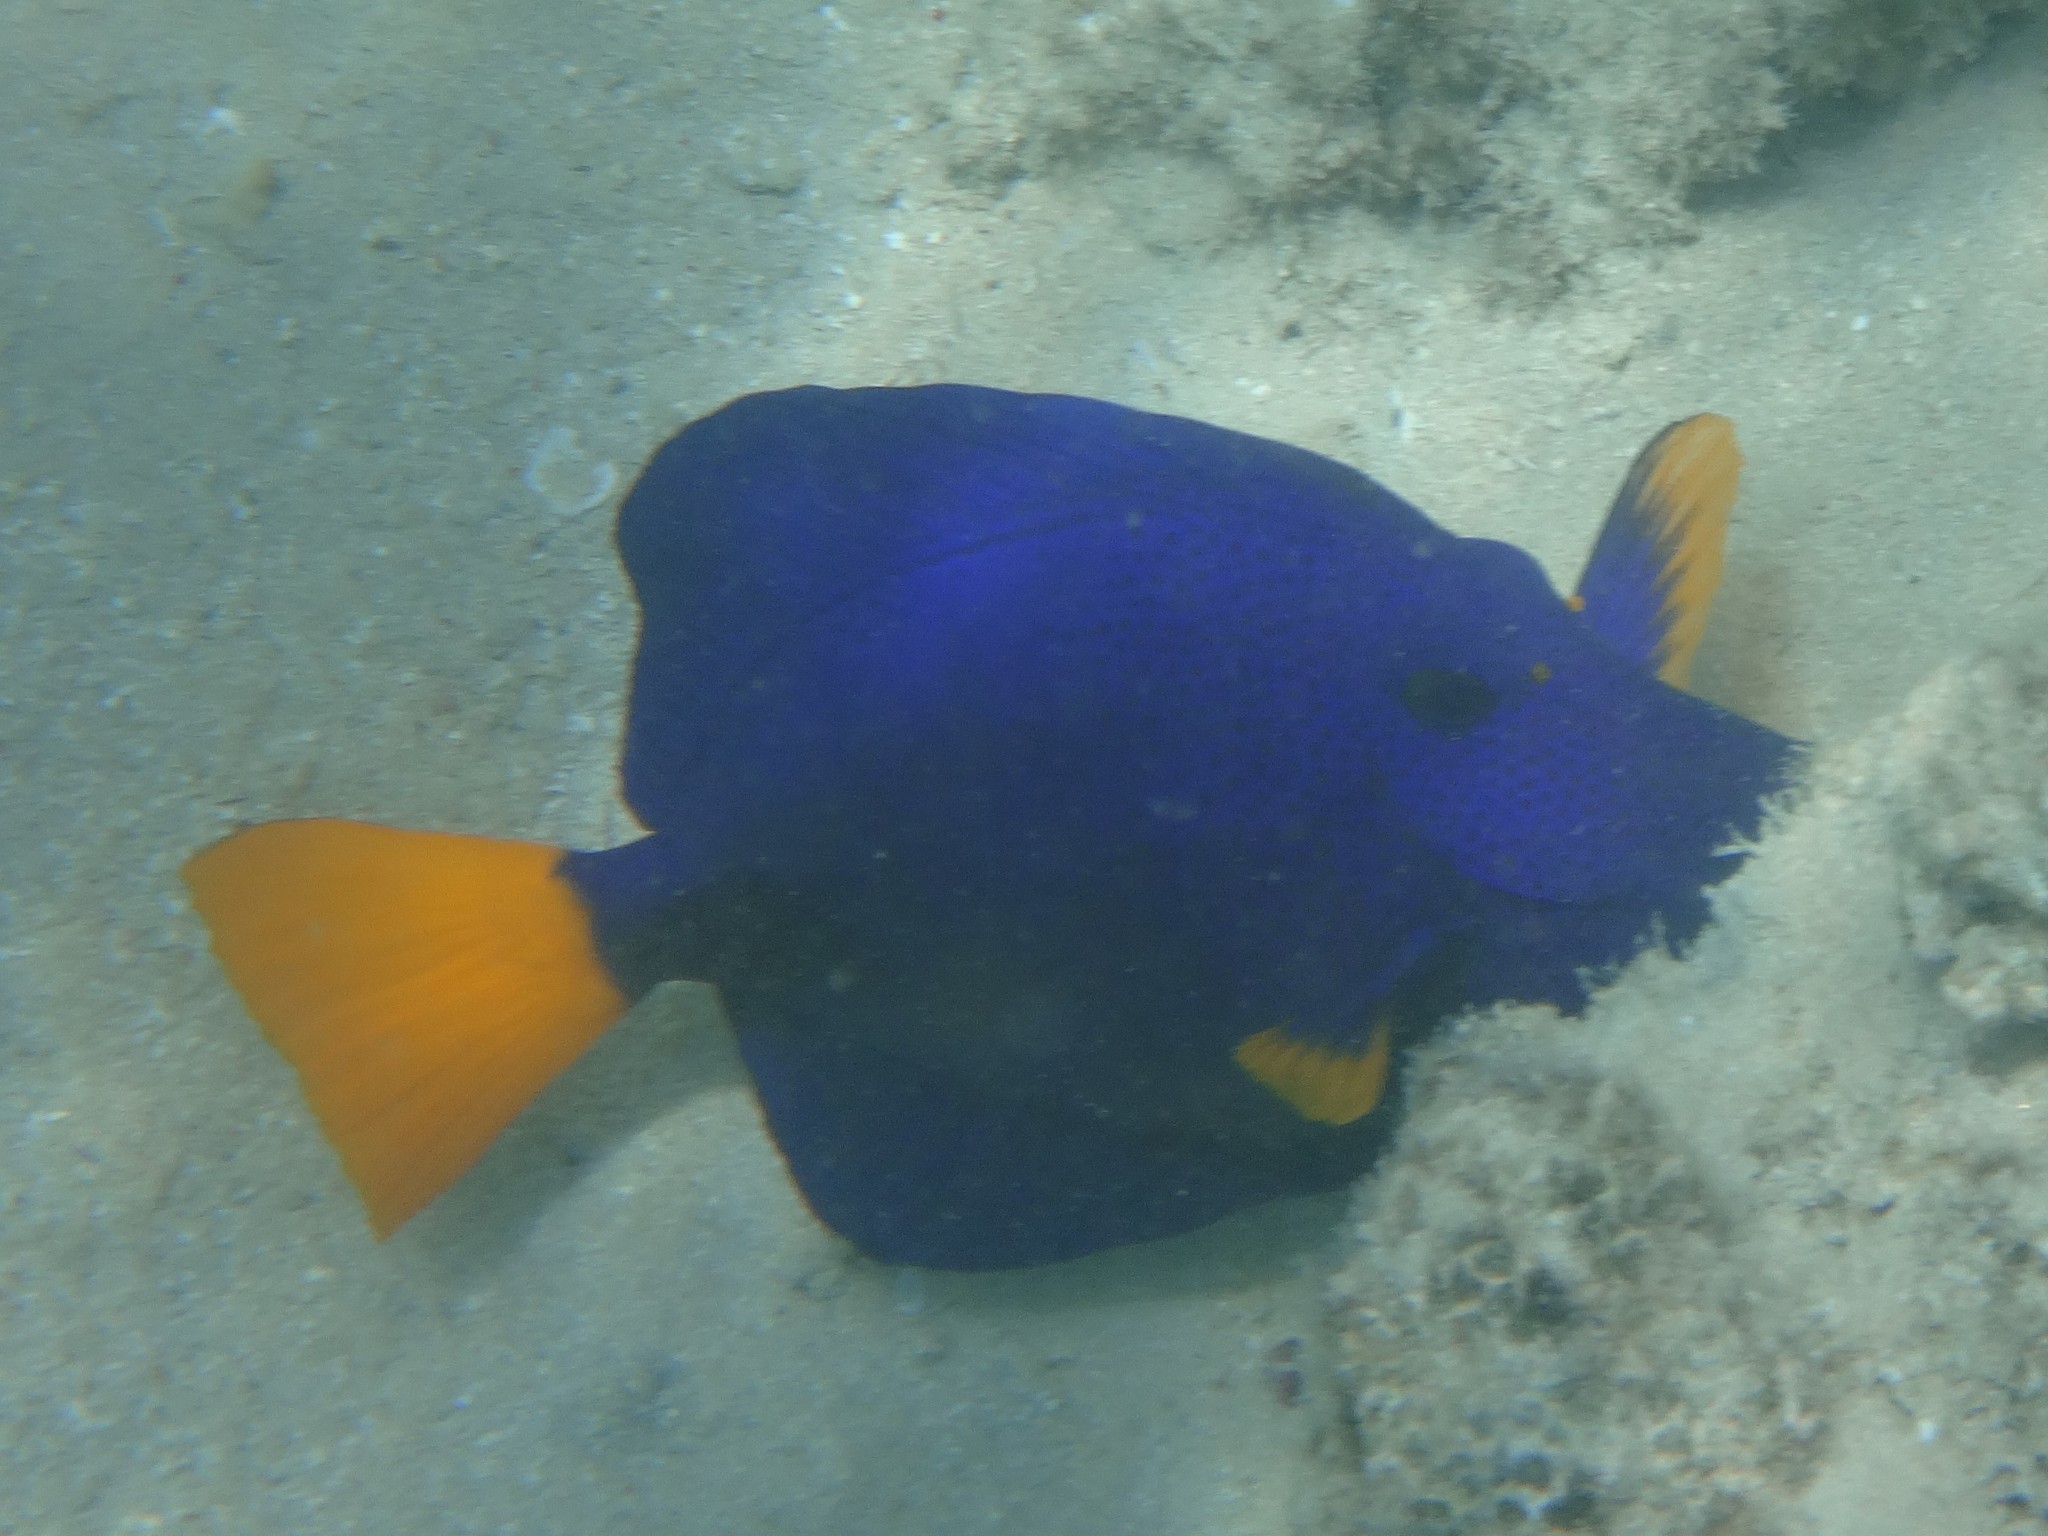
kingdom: Animalia
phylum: Chordata
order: Perciformes
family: Acanthuridae
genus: Zebrasoma
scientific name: Zebrasoma xanthurum
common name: Purple tang
